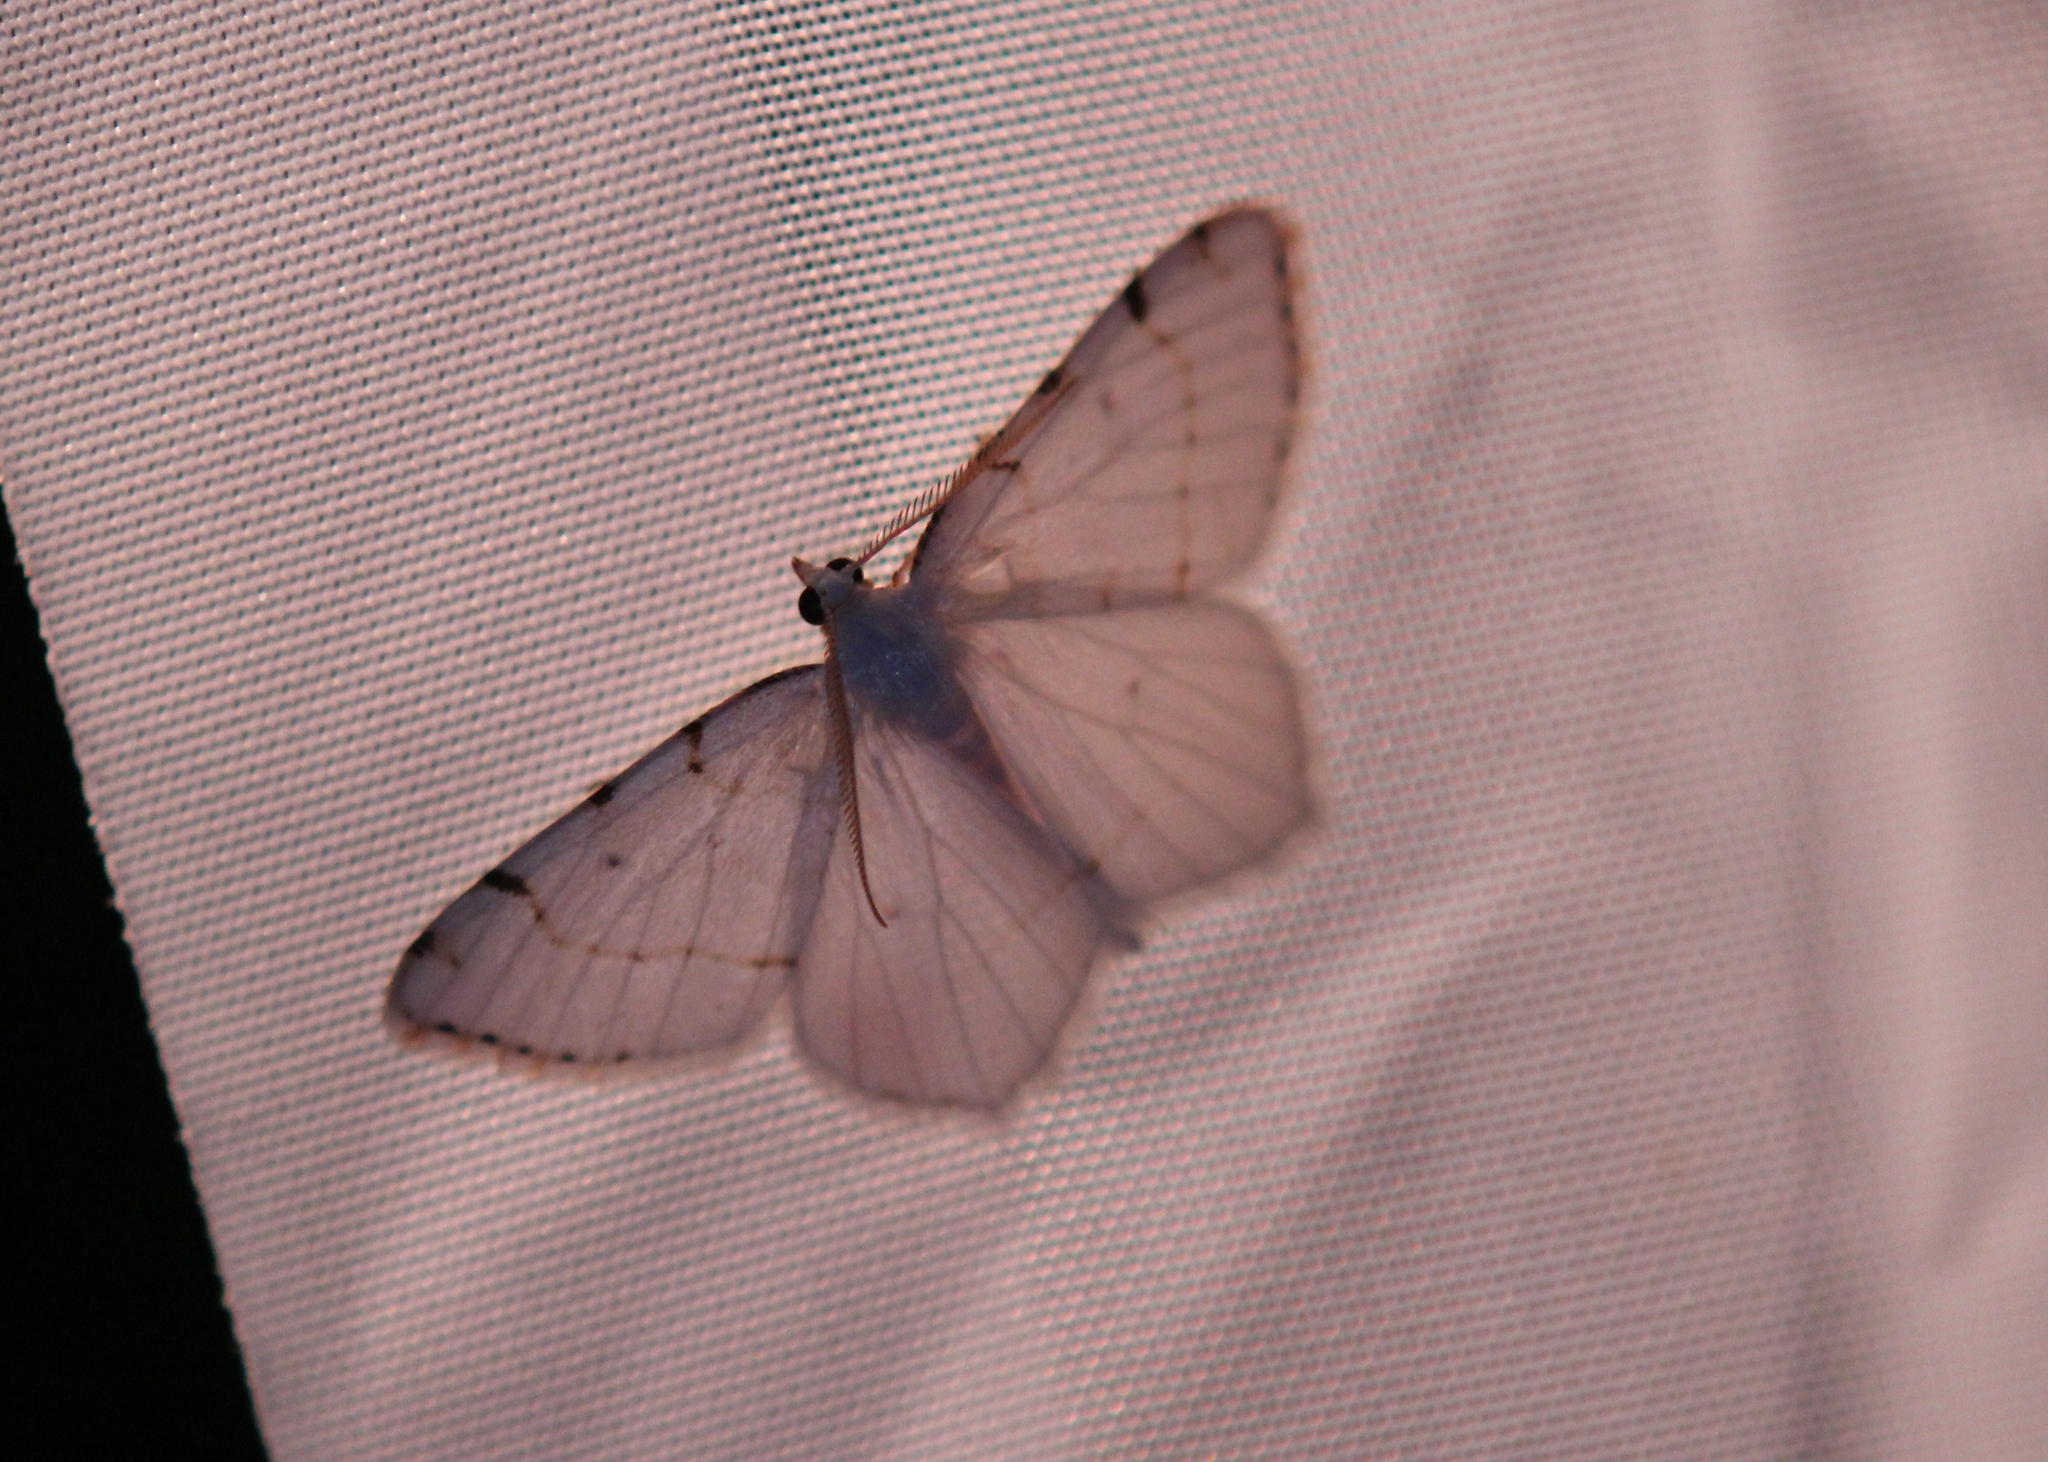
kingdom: Animalia
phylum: Arthropoda
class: Insecta
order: Lepidoptera
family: Geometridae
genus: Macaria
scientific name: Macaria pustularia
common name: Lesser maple spanworm moth
